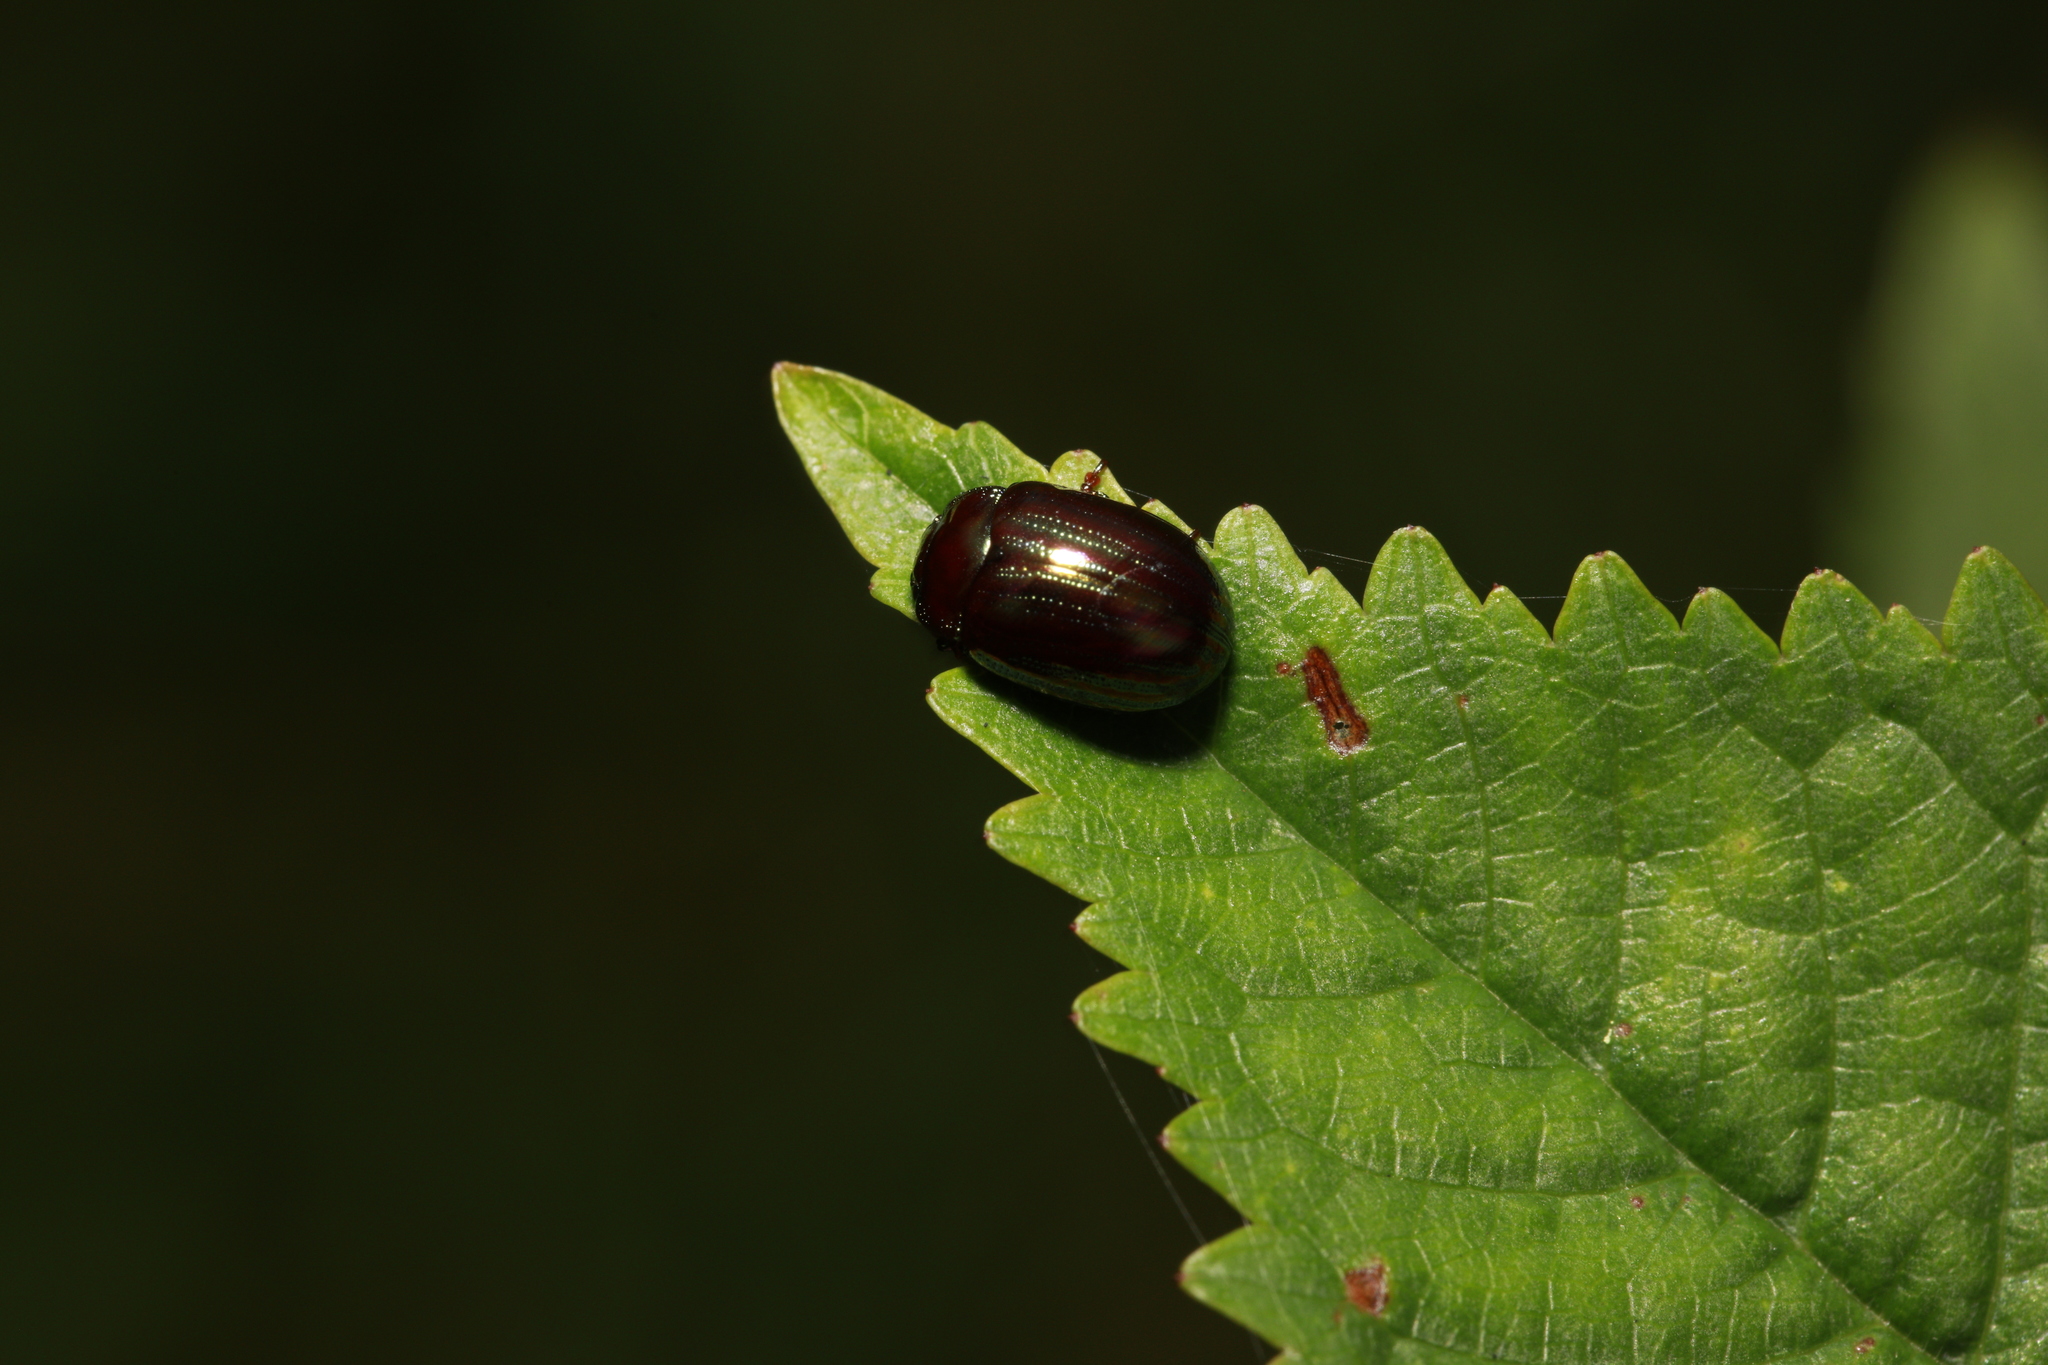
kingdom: Animalia
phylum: Arthropoda
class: Insecta
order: Coleoptera
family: Chrysomelidae
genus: Chrysolina
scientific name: Chrysolina americana
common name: Rosemary beetle
